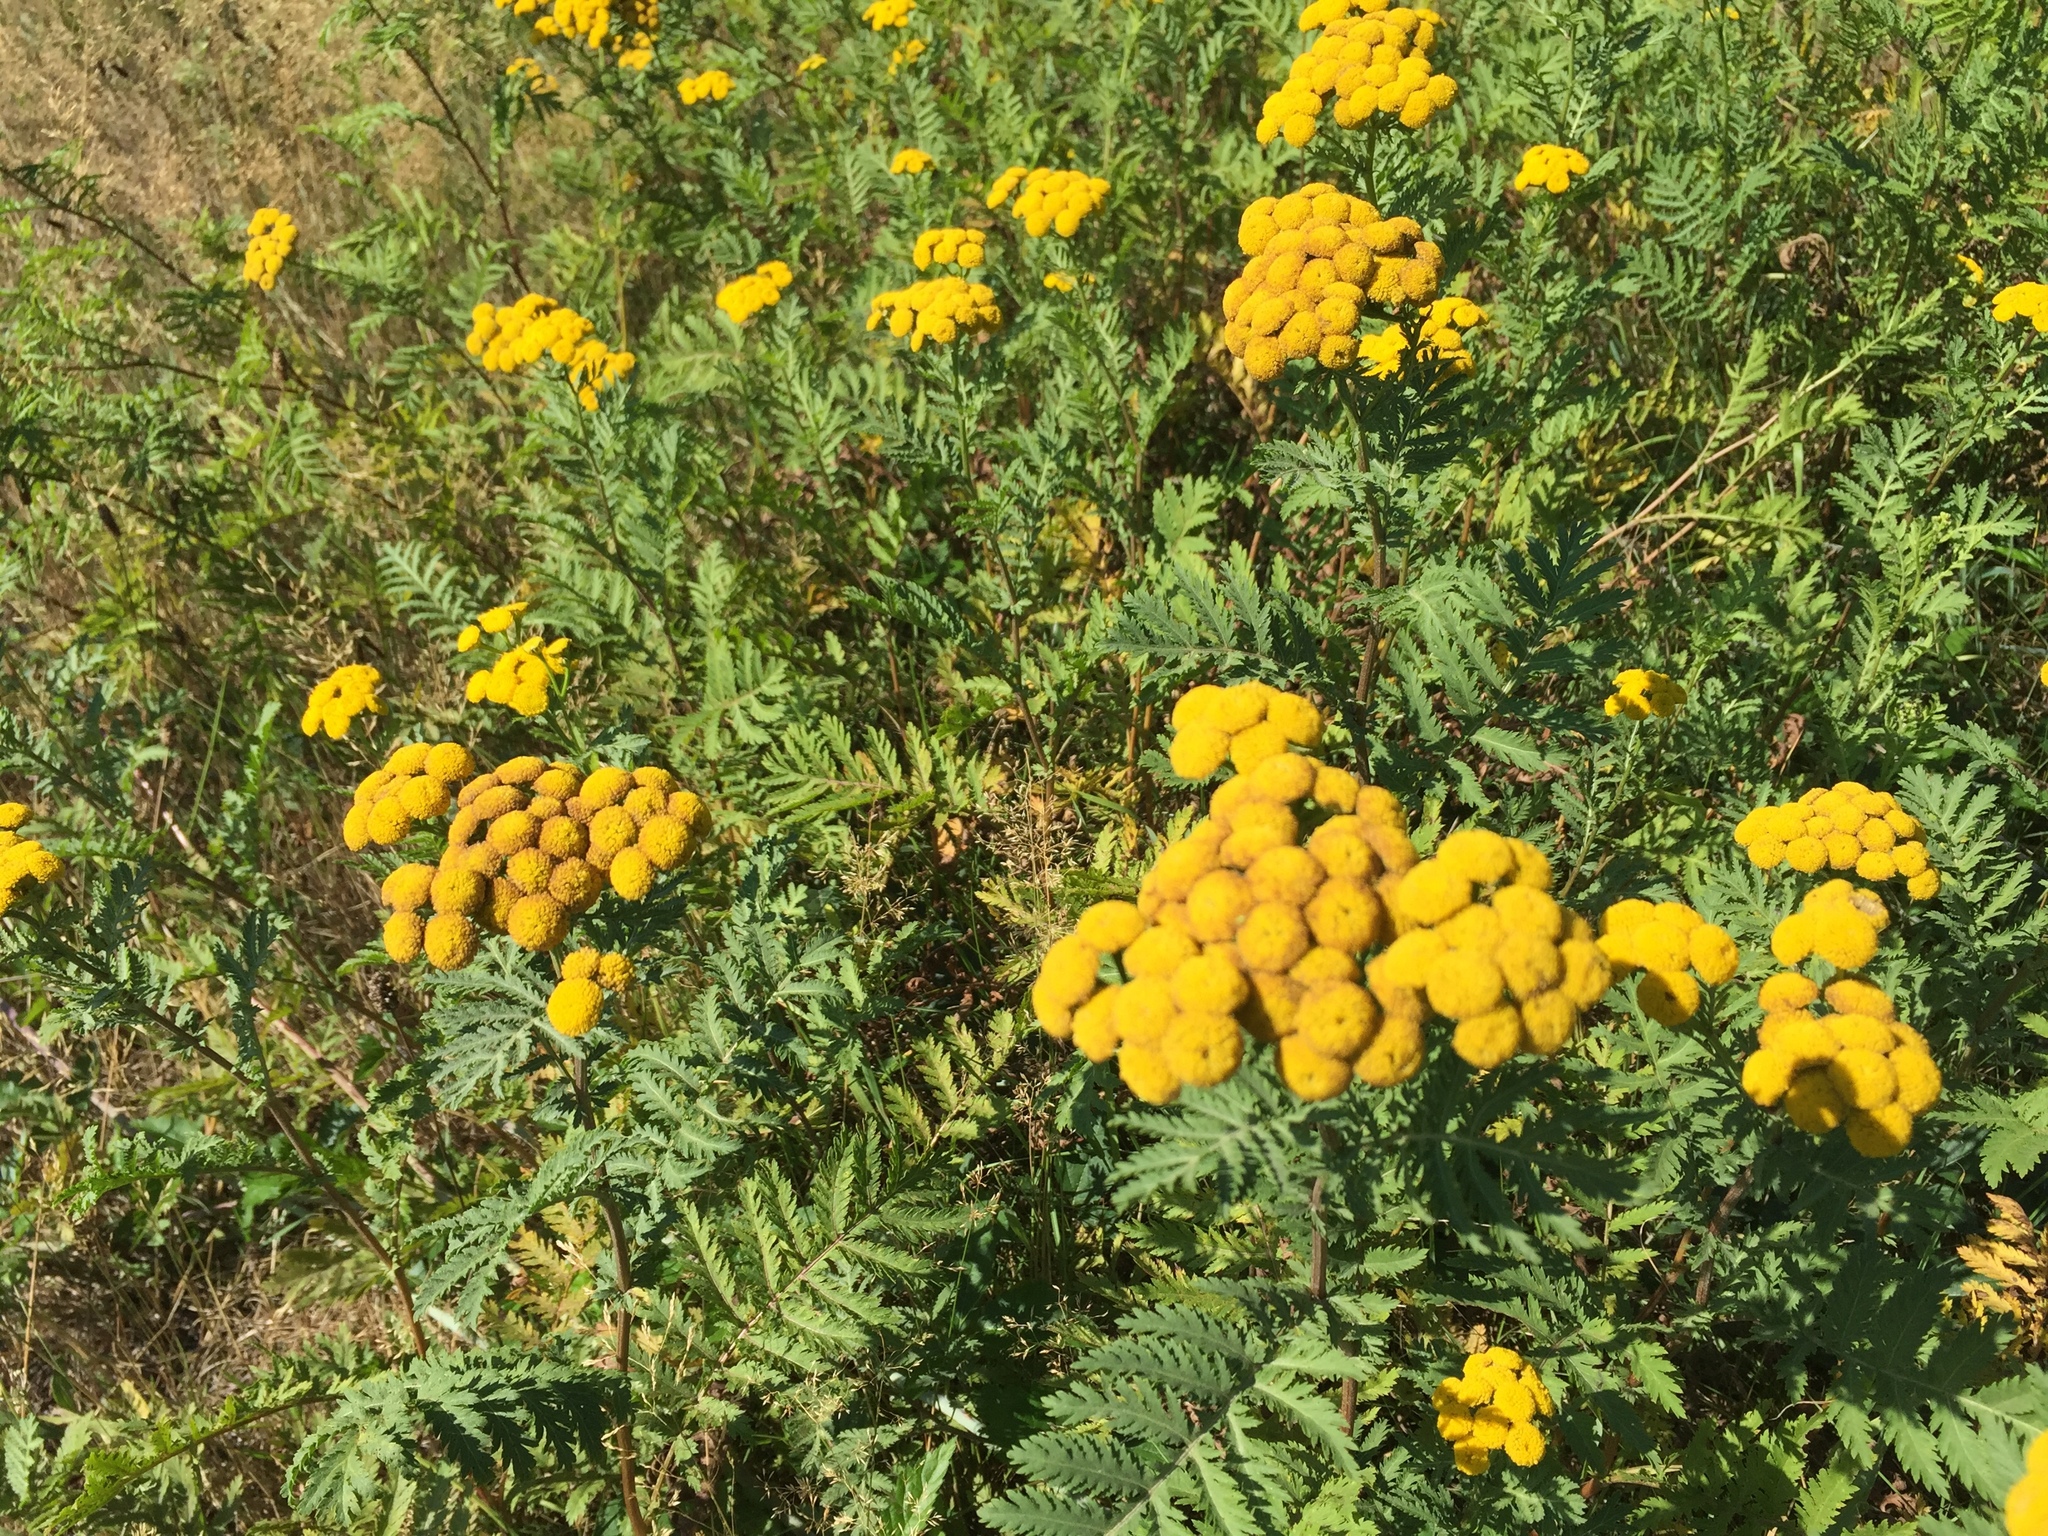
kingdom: Plantae
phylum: Tracheophyta
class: Magnoliopsida
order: Asterales
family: Asteraceae
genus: Tanacetum
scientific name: Tanacetum vulgare
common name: Common tansy
